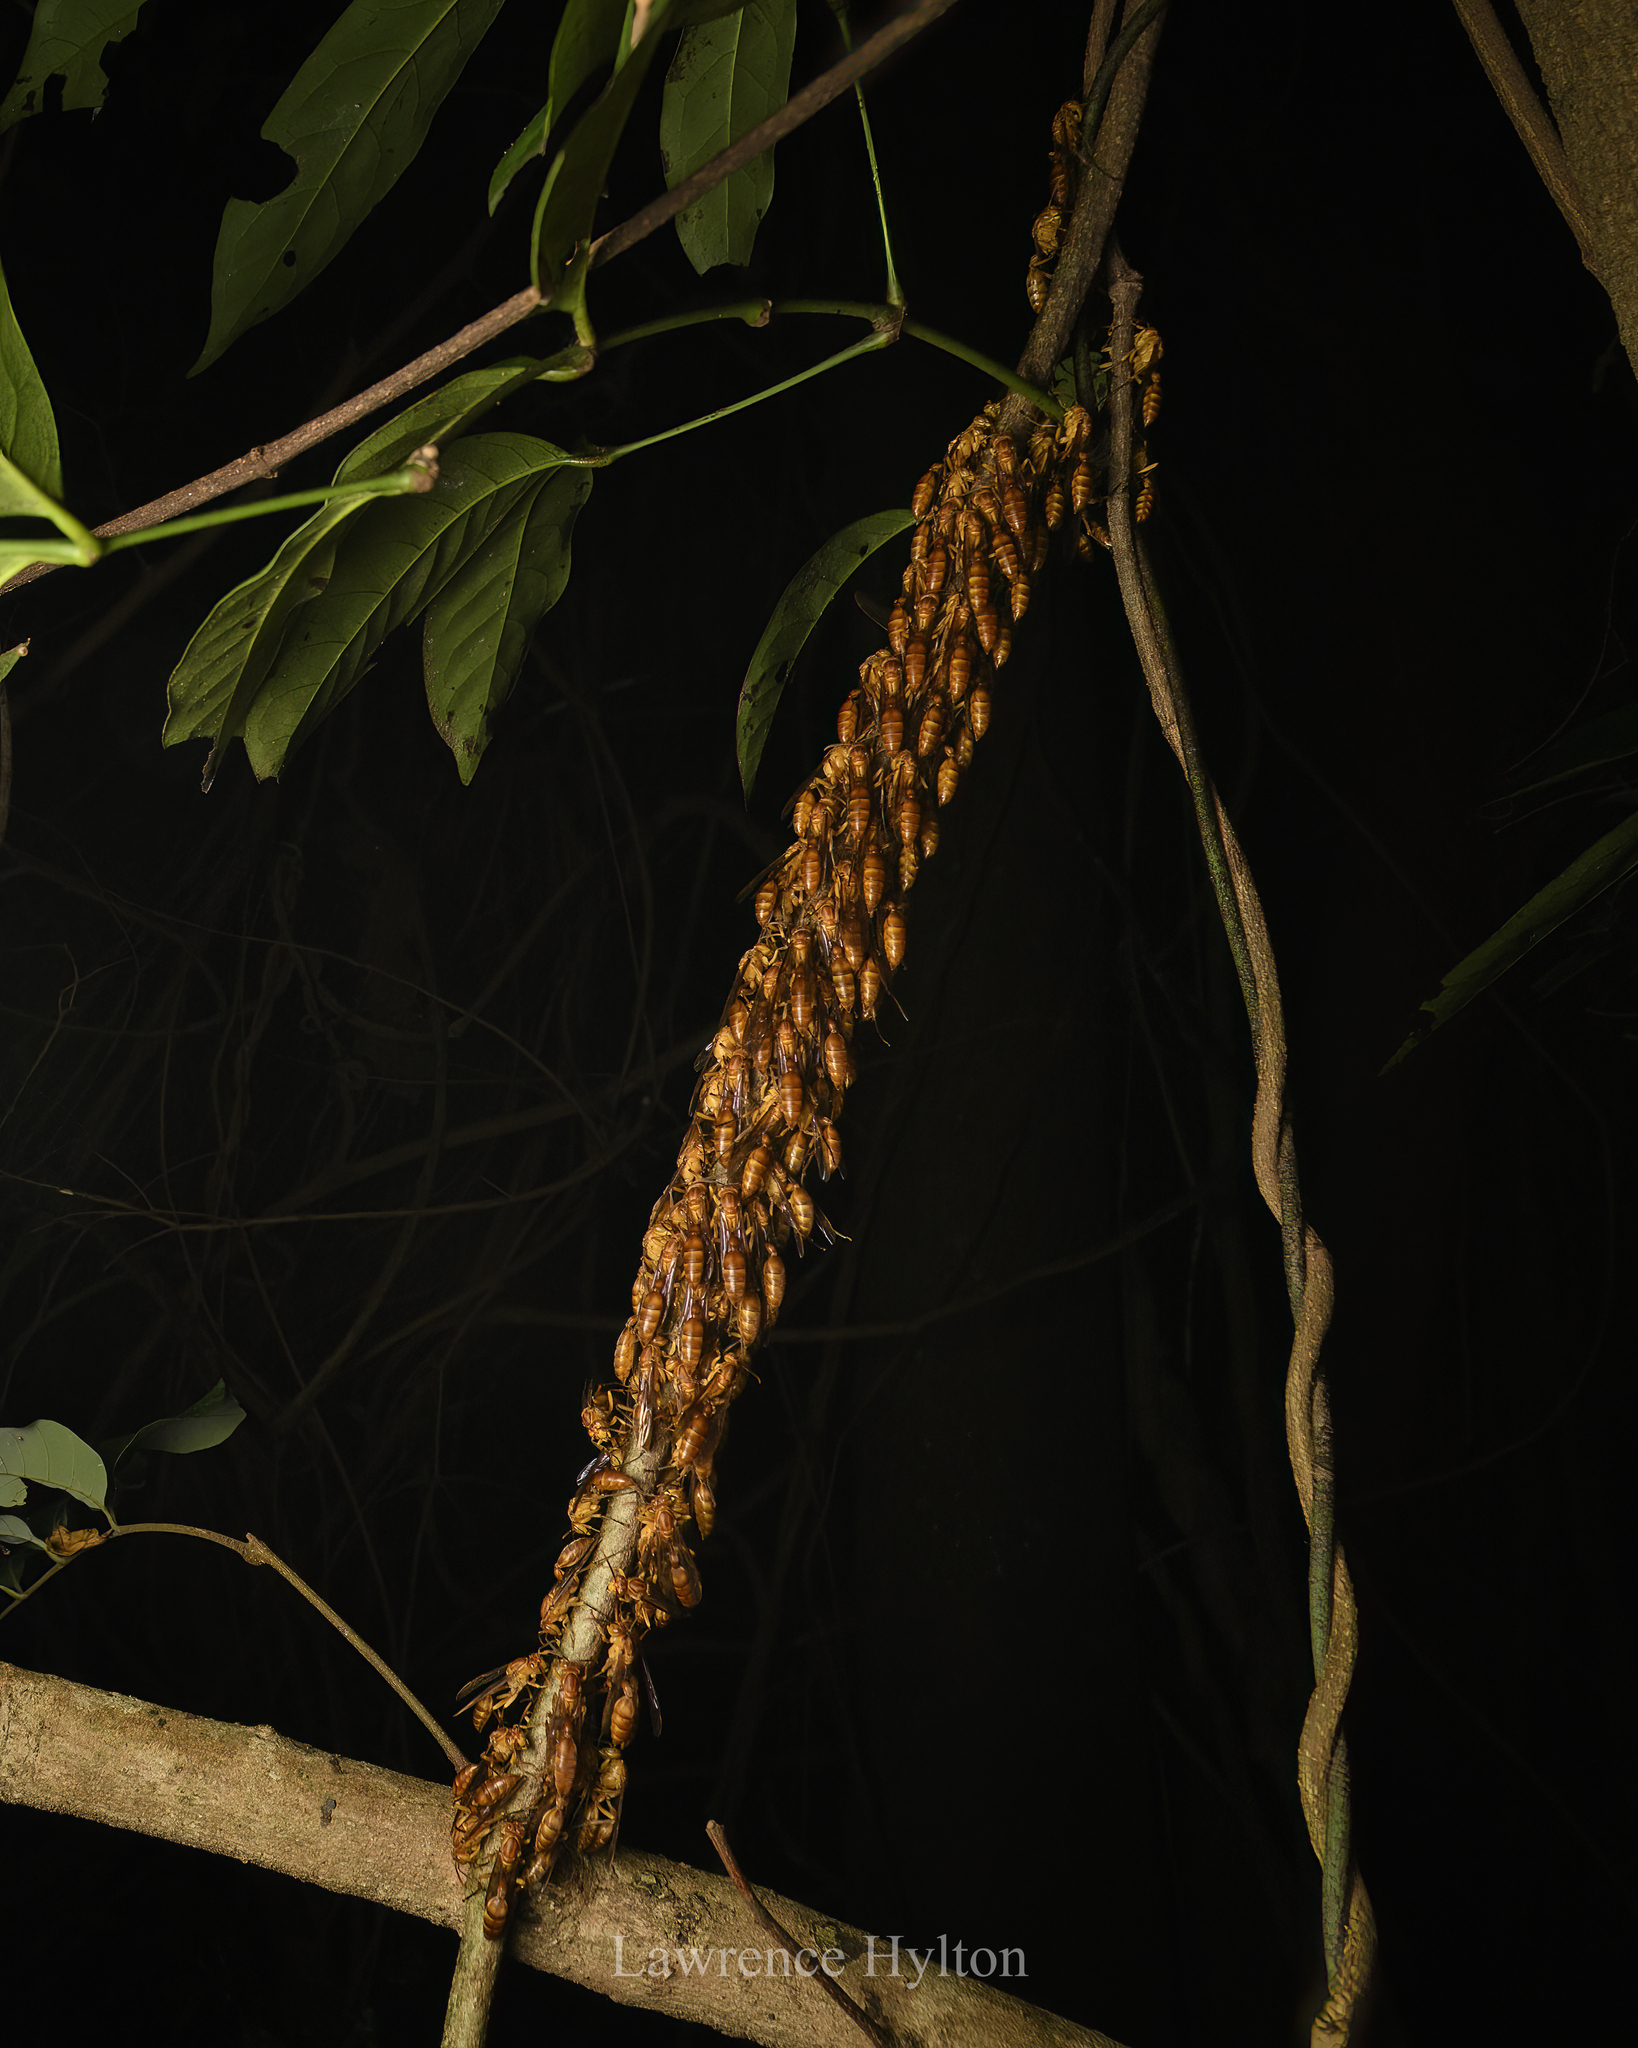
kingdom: Animalia
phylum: Arthropoda
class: Insecta
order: Hymenoptera
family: Vespidae
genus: Parapolybia
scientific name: Parapolybia indica
